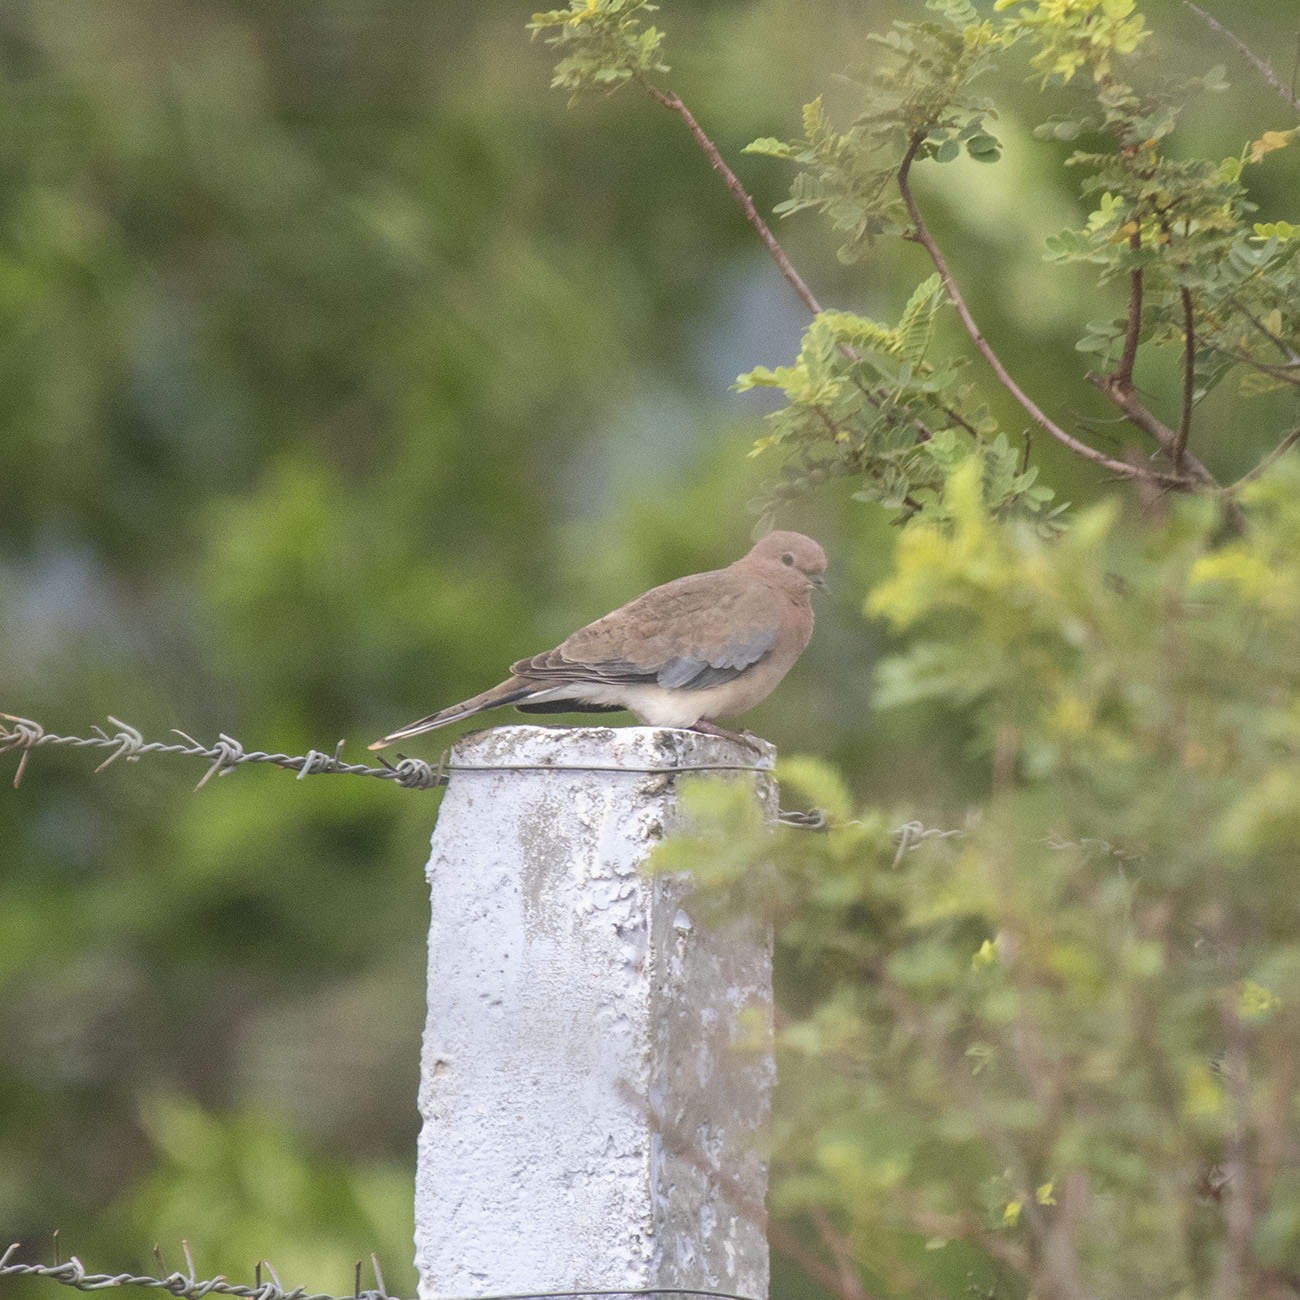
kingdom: Animalia
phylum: Chordata
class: Aves
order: Columbiformes
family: Columbidae
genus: Spilopelia
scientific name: Spilopelia senegalensis
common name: Laughing dove
